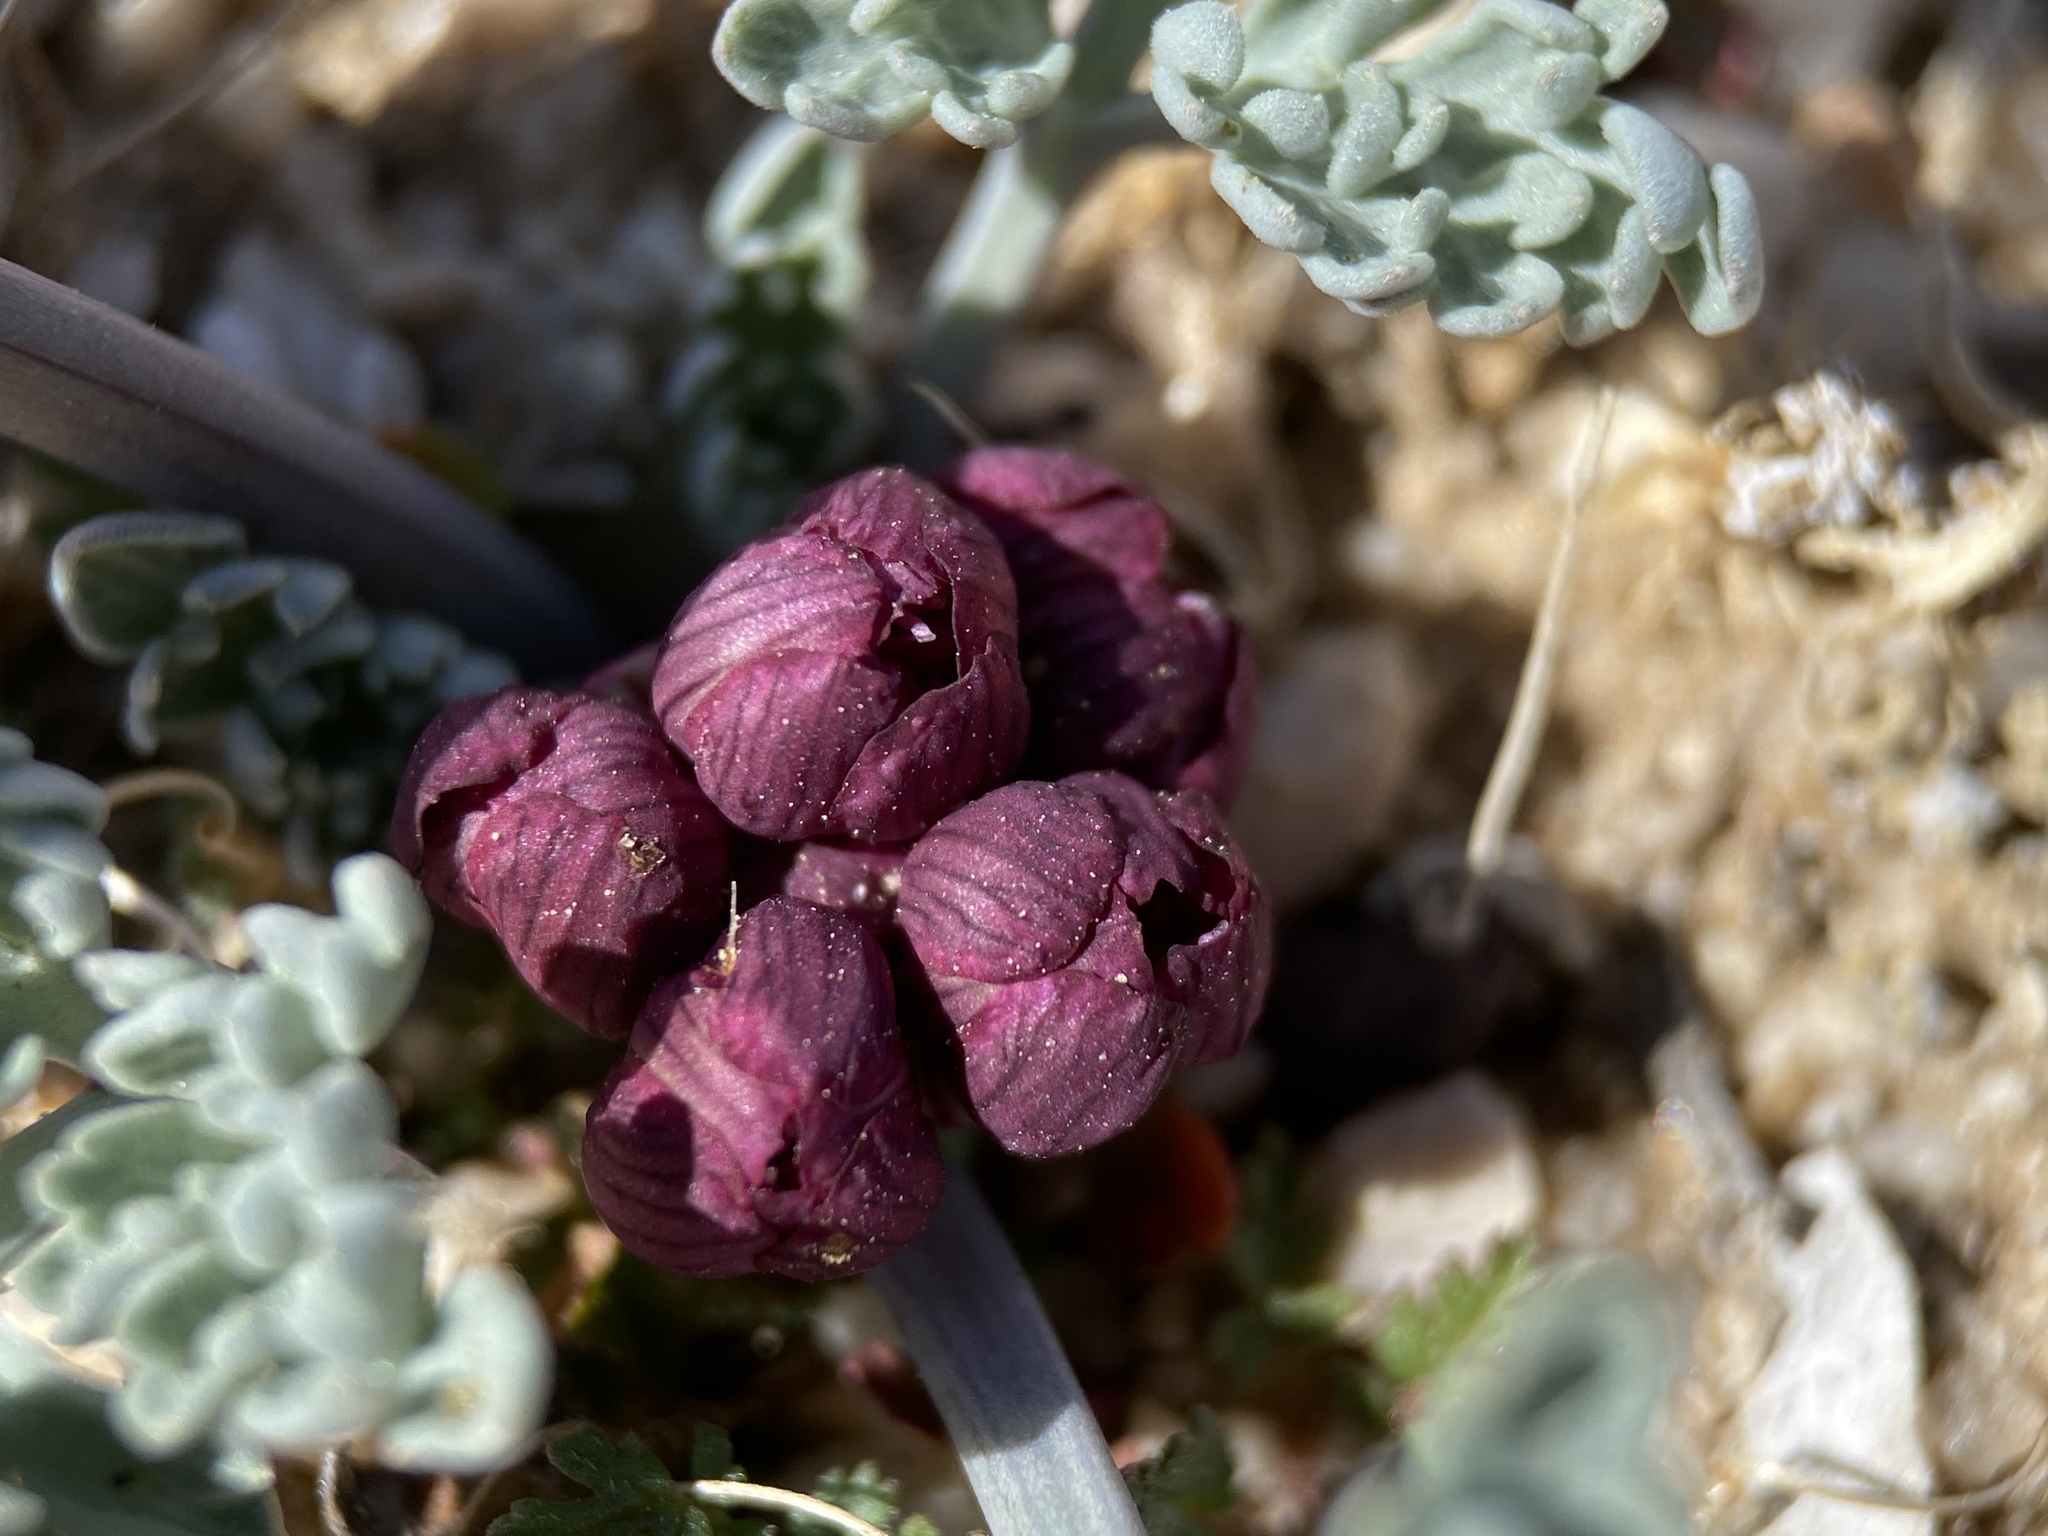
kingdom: Plantae
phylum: Tracheophyta
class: Magnoliopsida
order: Apiales
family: Apiaceae
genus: Vesper
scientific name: Vesper multinervatus
